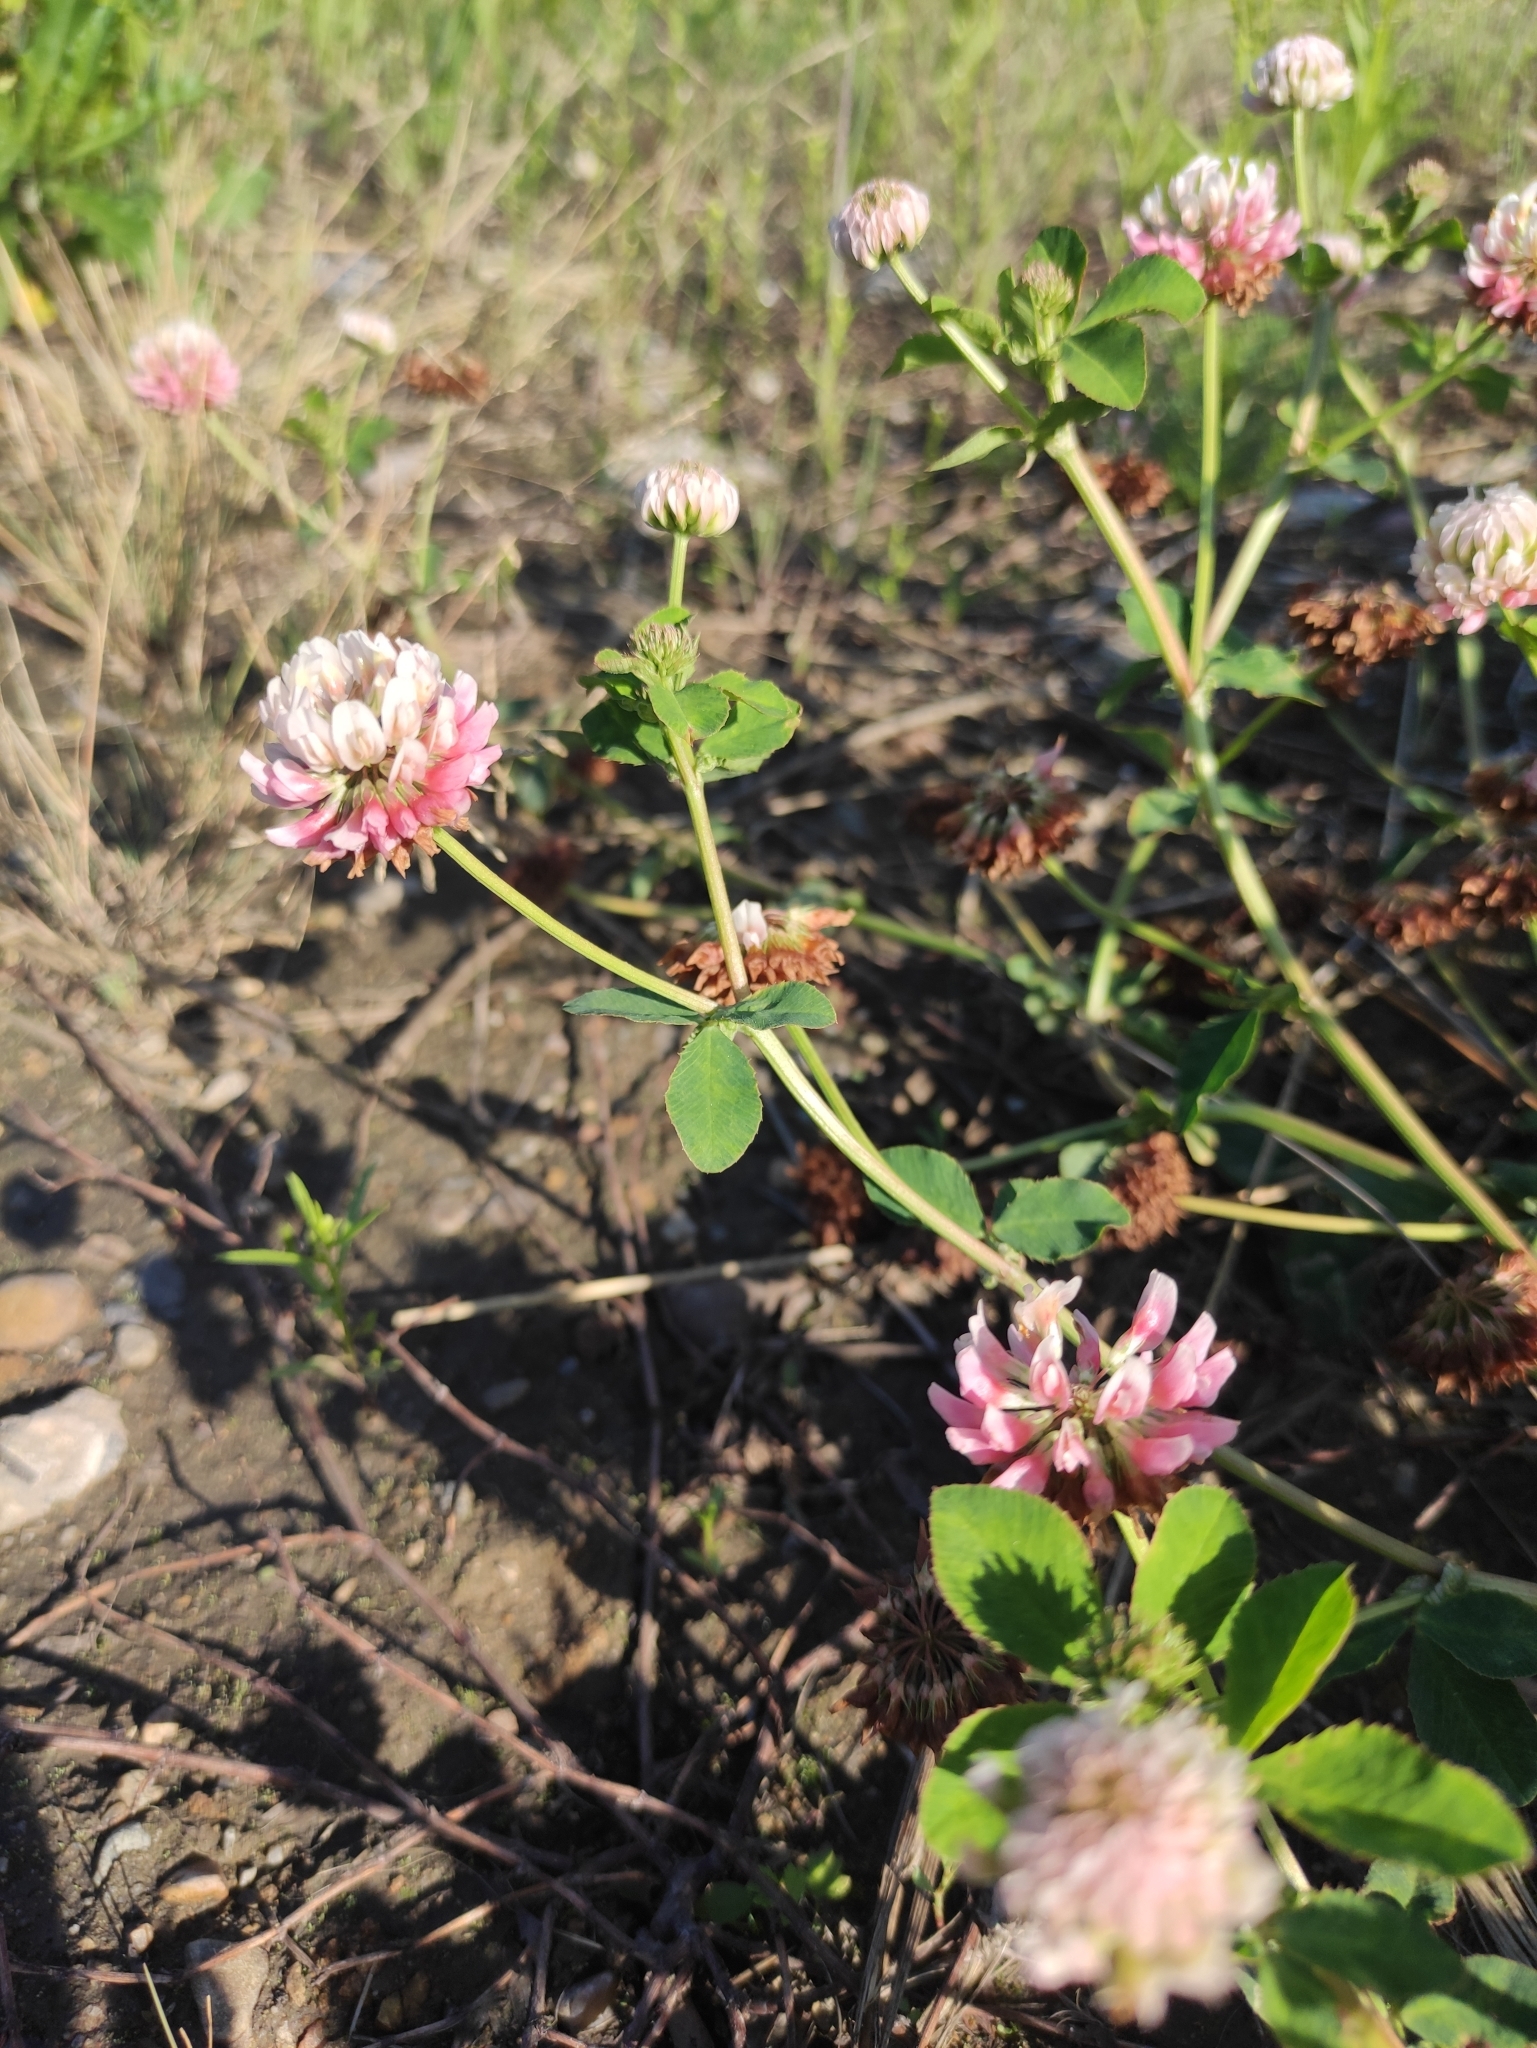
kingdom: Plantae
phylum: Tracheophyta
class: Magnoliopsida
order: Fabales
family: Fabaceae
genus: Trifolium
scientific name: Trifolium hybridum
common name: Alsike clover
